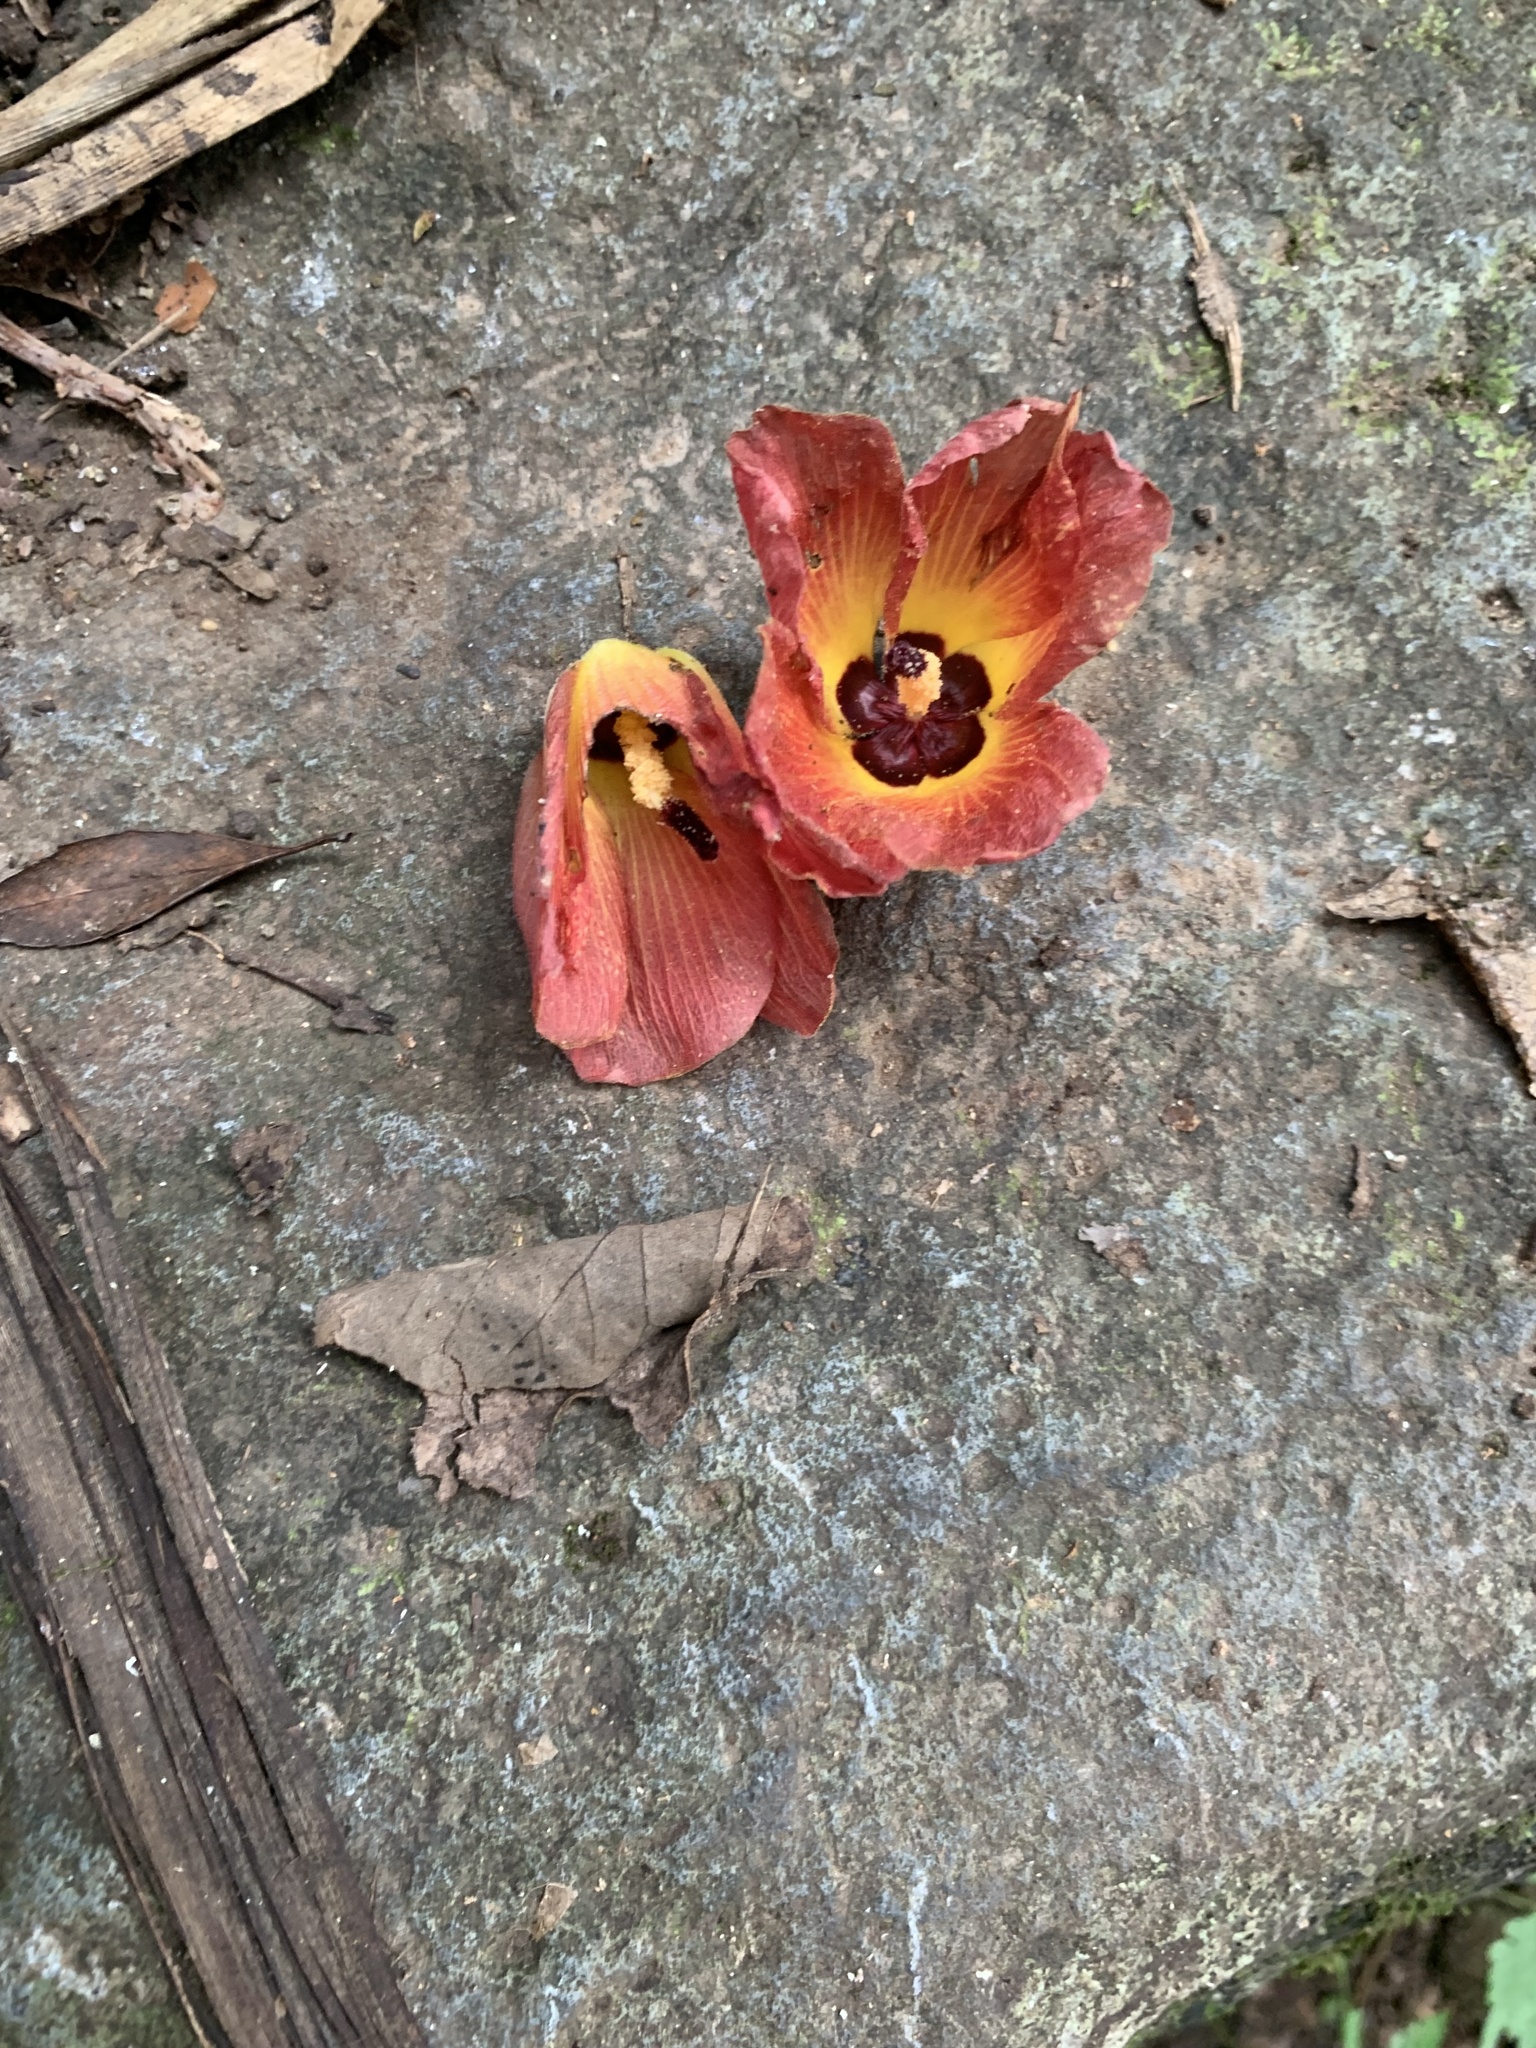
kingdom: Plantae
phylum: Tracheophyta
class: Magnoliopsida
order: Malvales
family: Malvaceae
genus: Talipariti
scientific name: Talipariti tiliaceum
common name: Sea hibiscus
